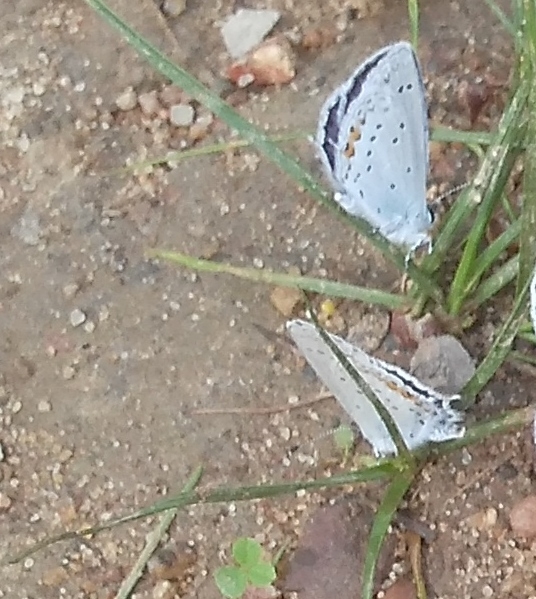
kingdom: Animalia
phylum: Arthropoda
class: Insecta
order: Lepidoptera
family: Lycaenidae
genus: Elkalyce
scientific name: Elkalyce argiades
